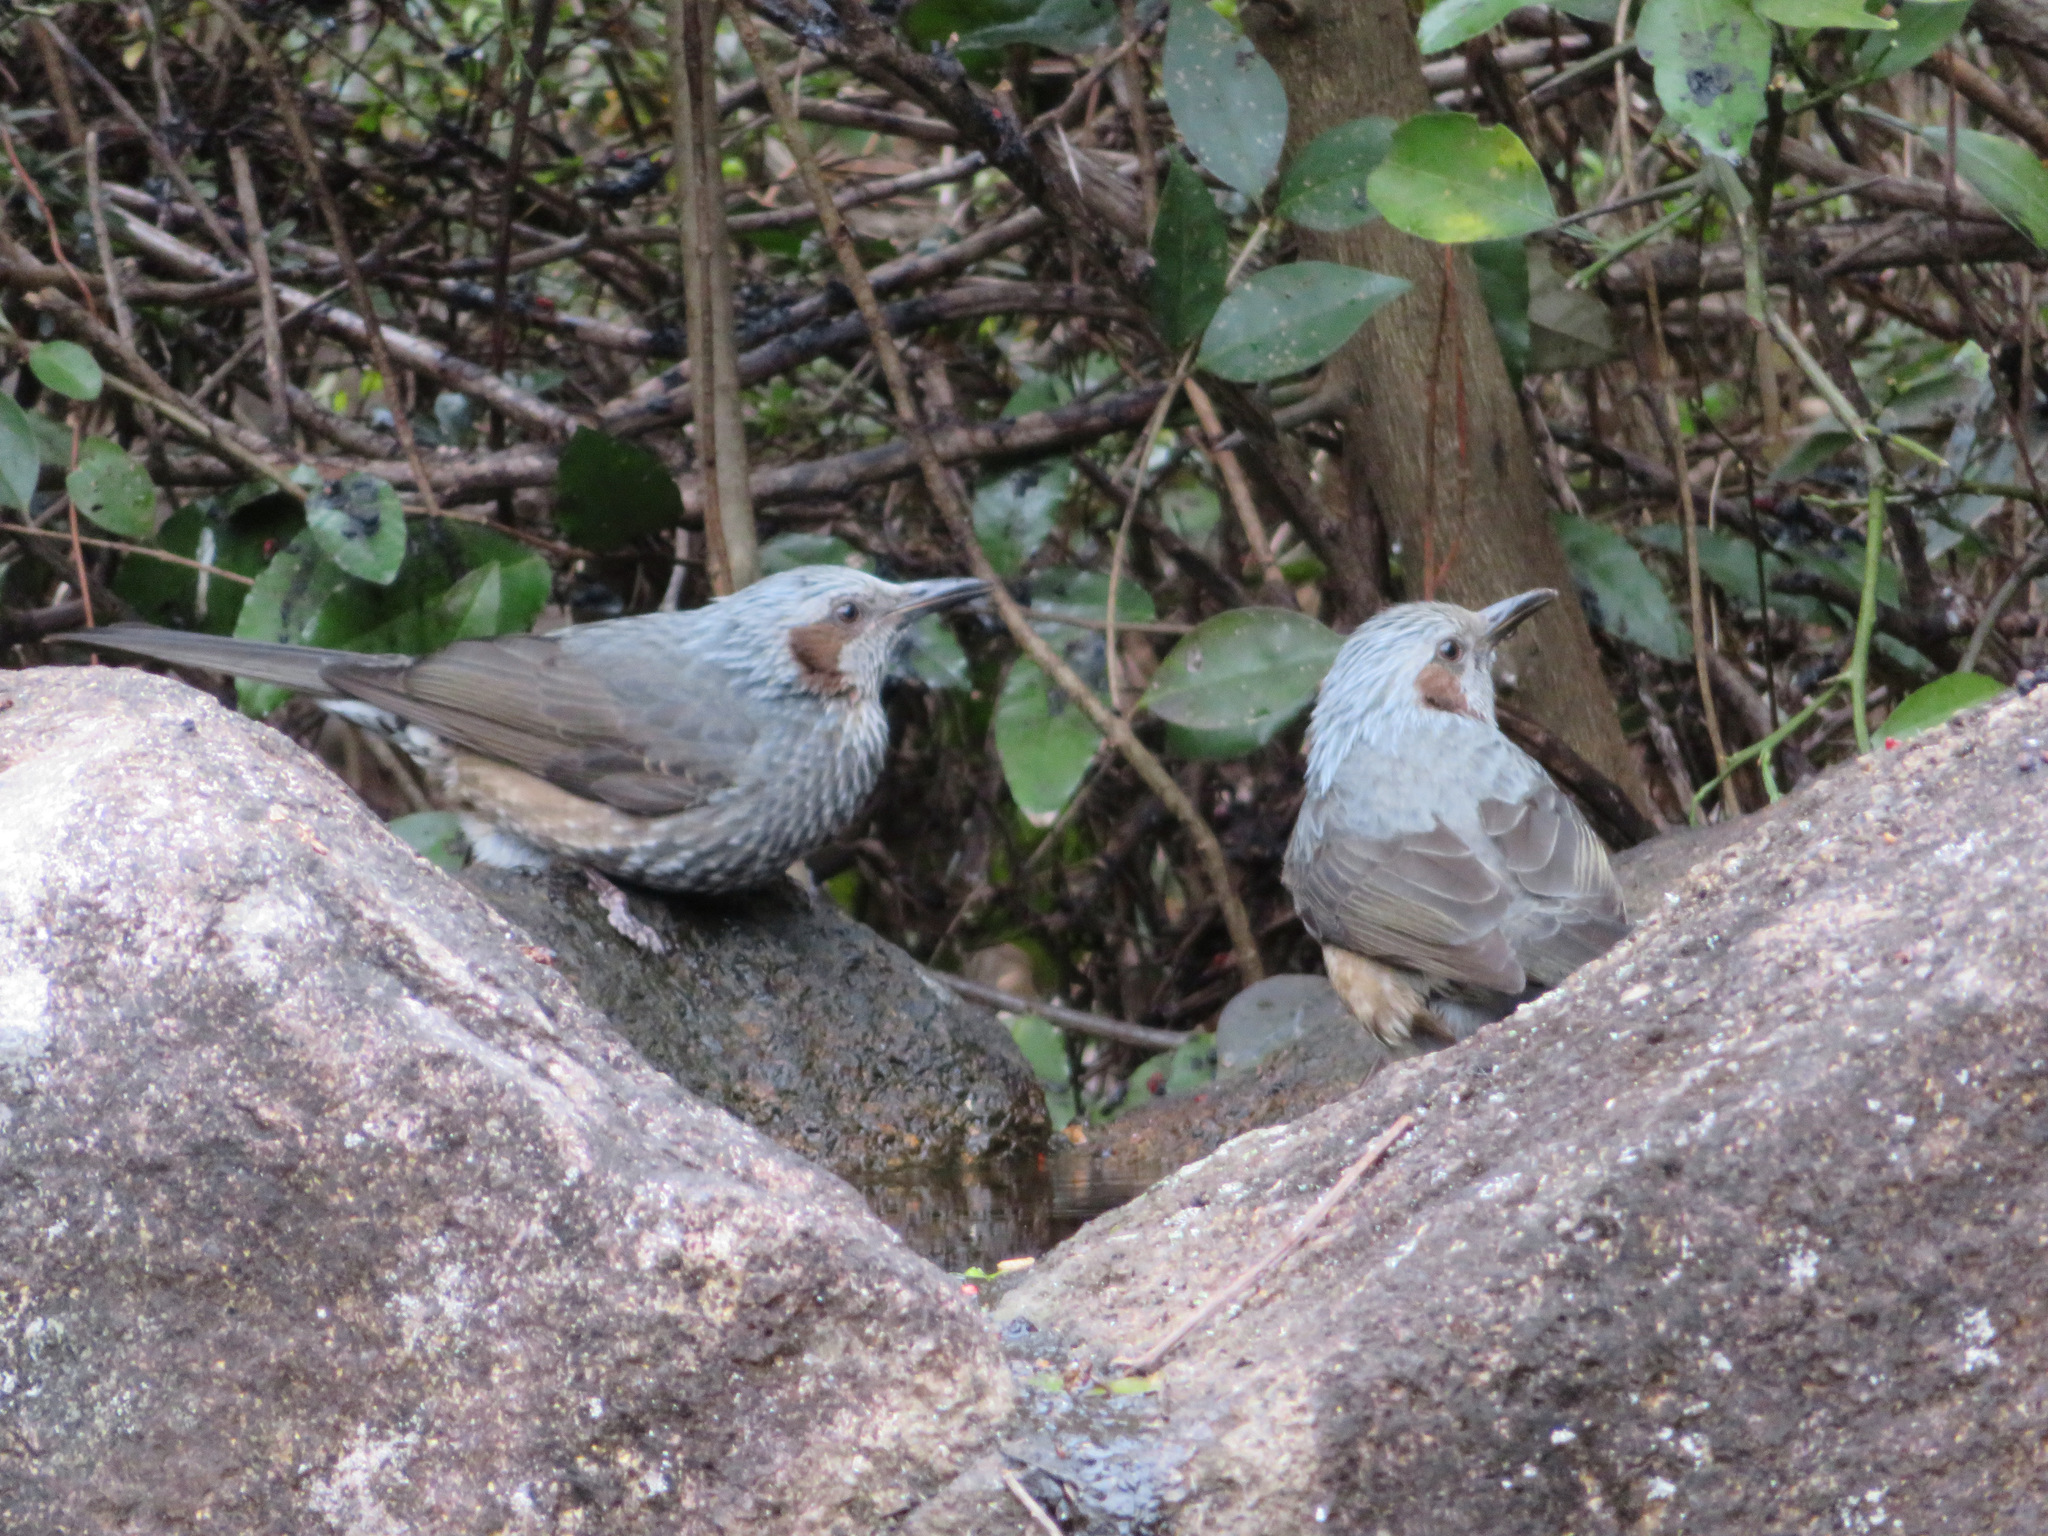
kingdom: Animalia
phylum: Chordata
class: Aves
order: Passeriformes
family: Pycnonotidae
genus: Hypsipetes
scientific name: Hypsipetes amaurotis
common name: Brown-eared bulbul
